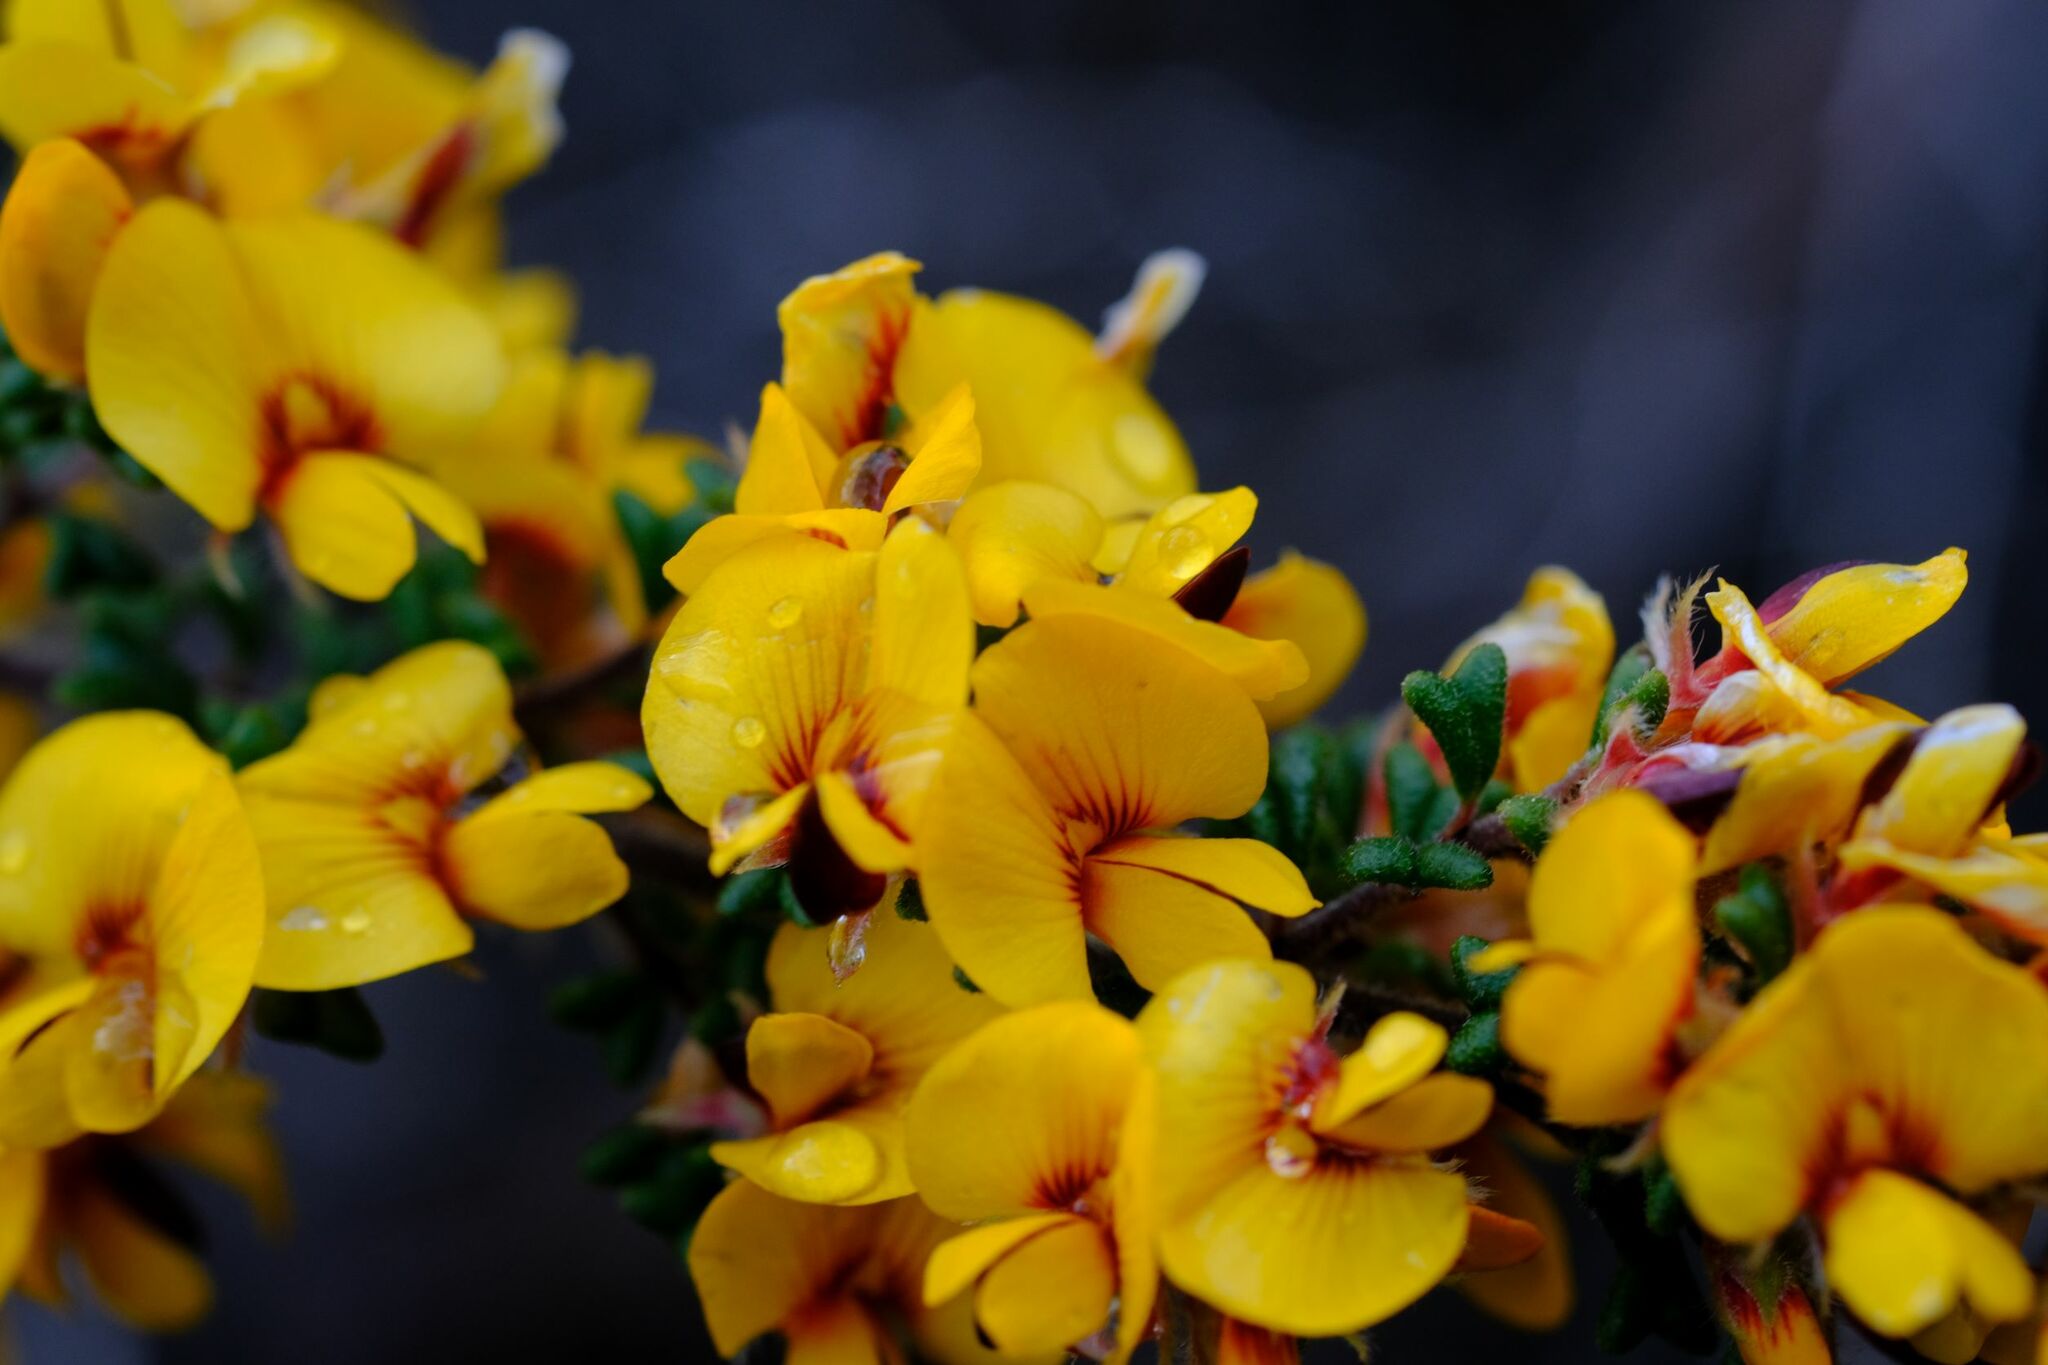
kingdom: Plantae
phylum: Tracheophyta
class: Magnoliopsida
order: Fabales
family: Fabaceae
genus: Pultenaea
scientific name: Pultenaea scabra
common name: Rough bush-pea
